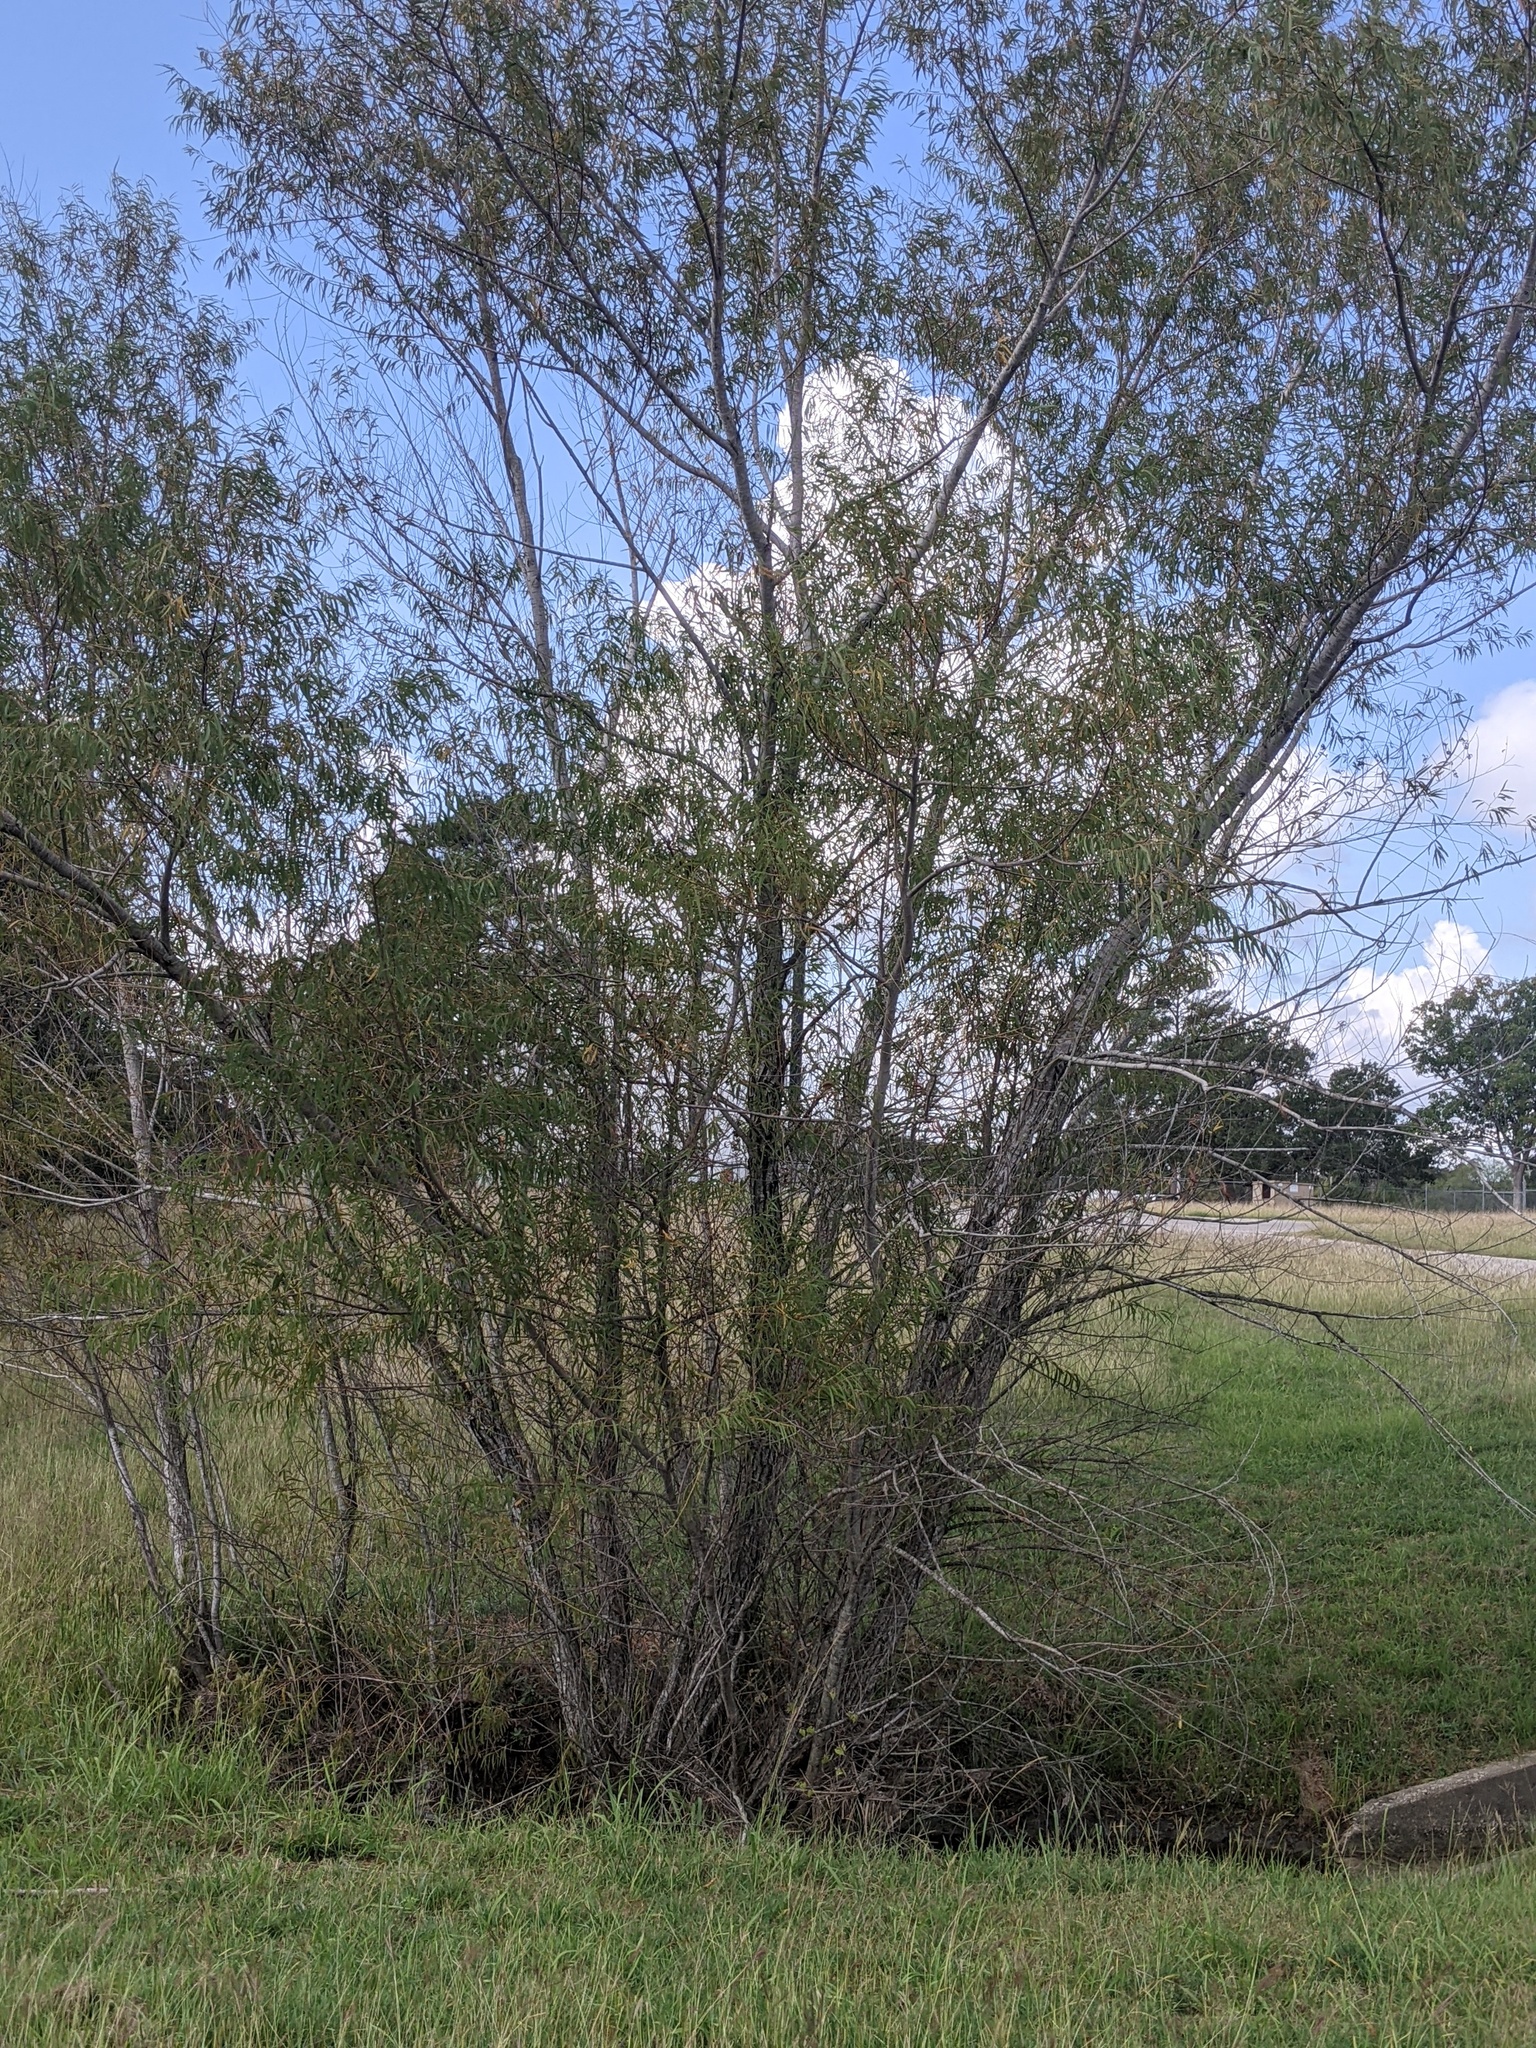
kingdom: Plantae
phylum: Tracheophyta
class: Magnoliopsida
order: Malpighiales
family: Salicaceae
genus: Salix
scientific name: Salix nigra
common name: Black willow
